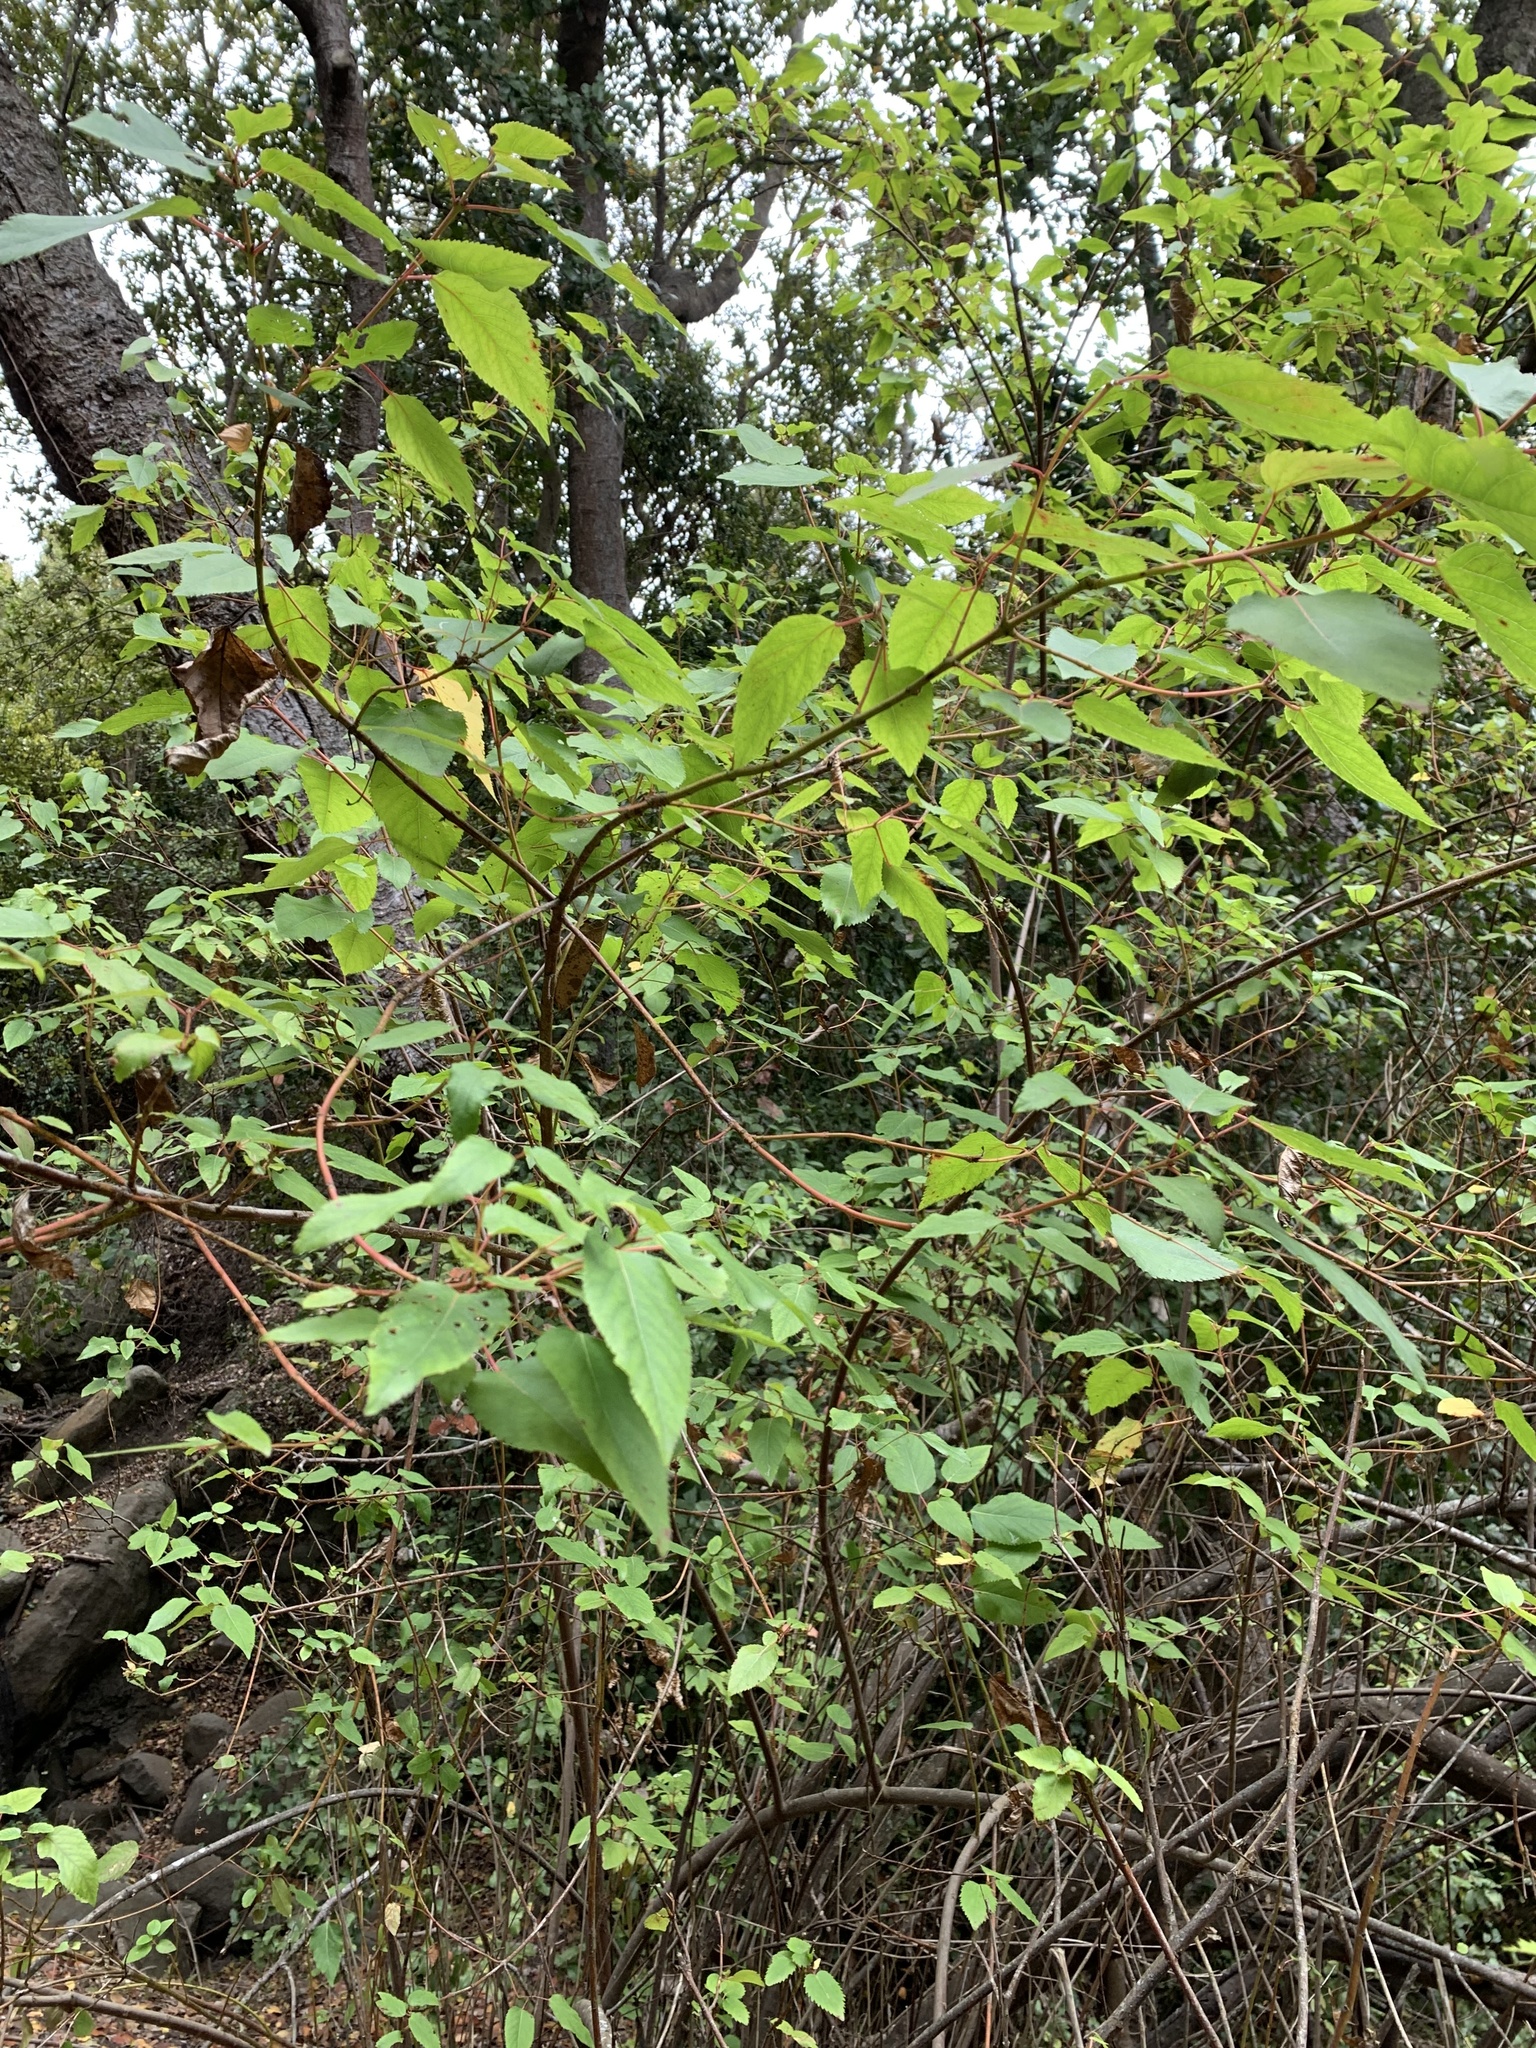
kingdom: Plantae
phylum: Tracheophyta
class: Magnoliopsida
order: Oxalidales
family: Elaeocarpaceae
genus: Aristotelia
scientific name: Aristotelia chilensis
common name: Maquei
